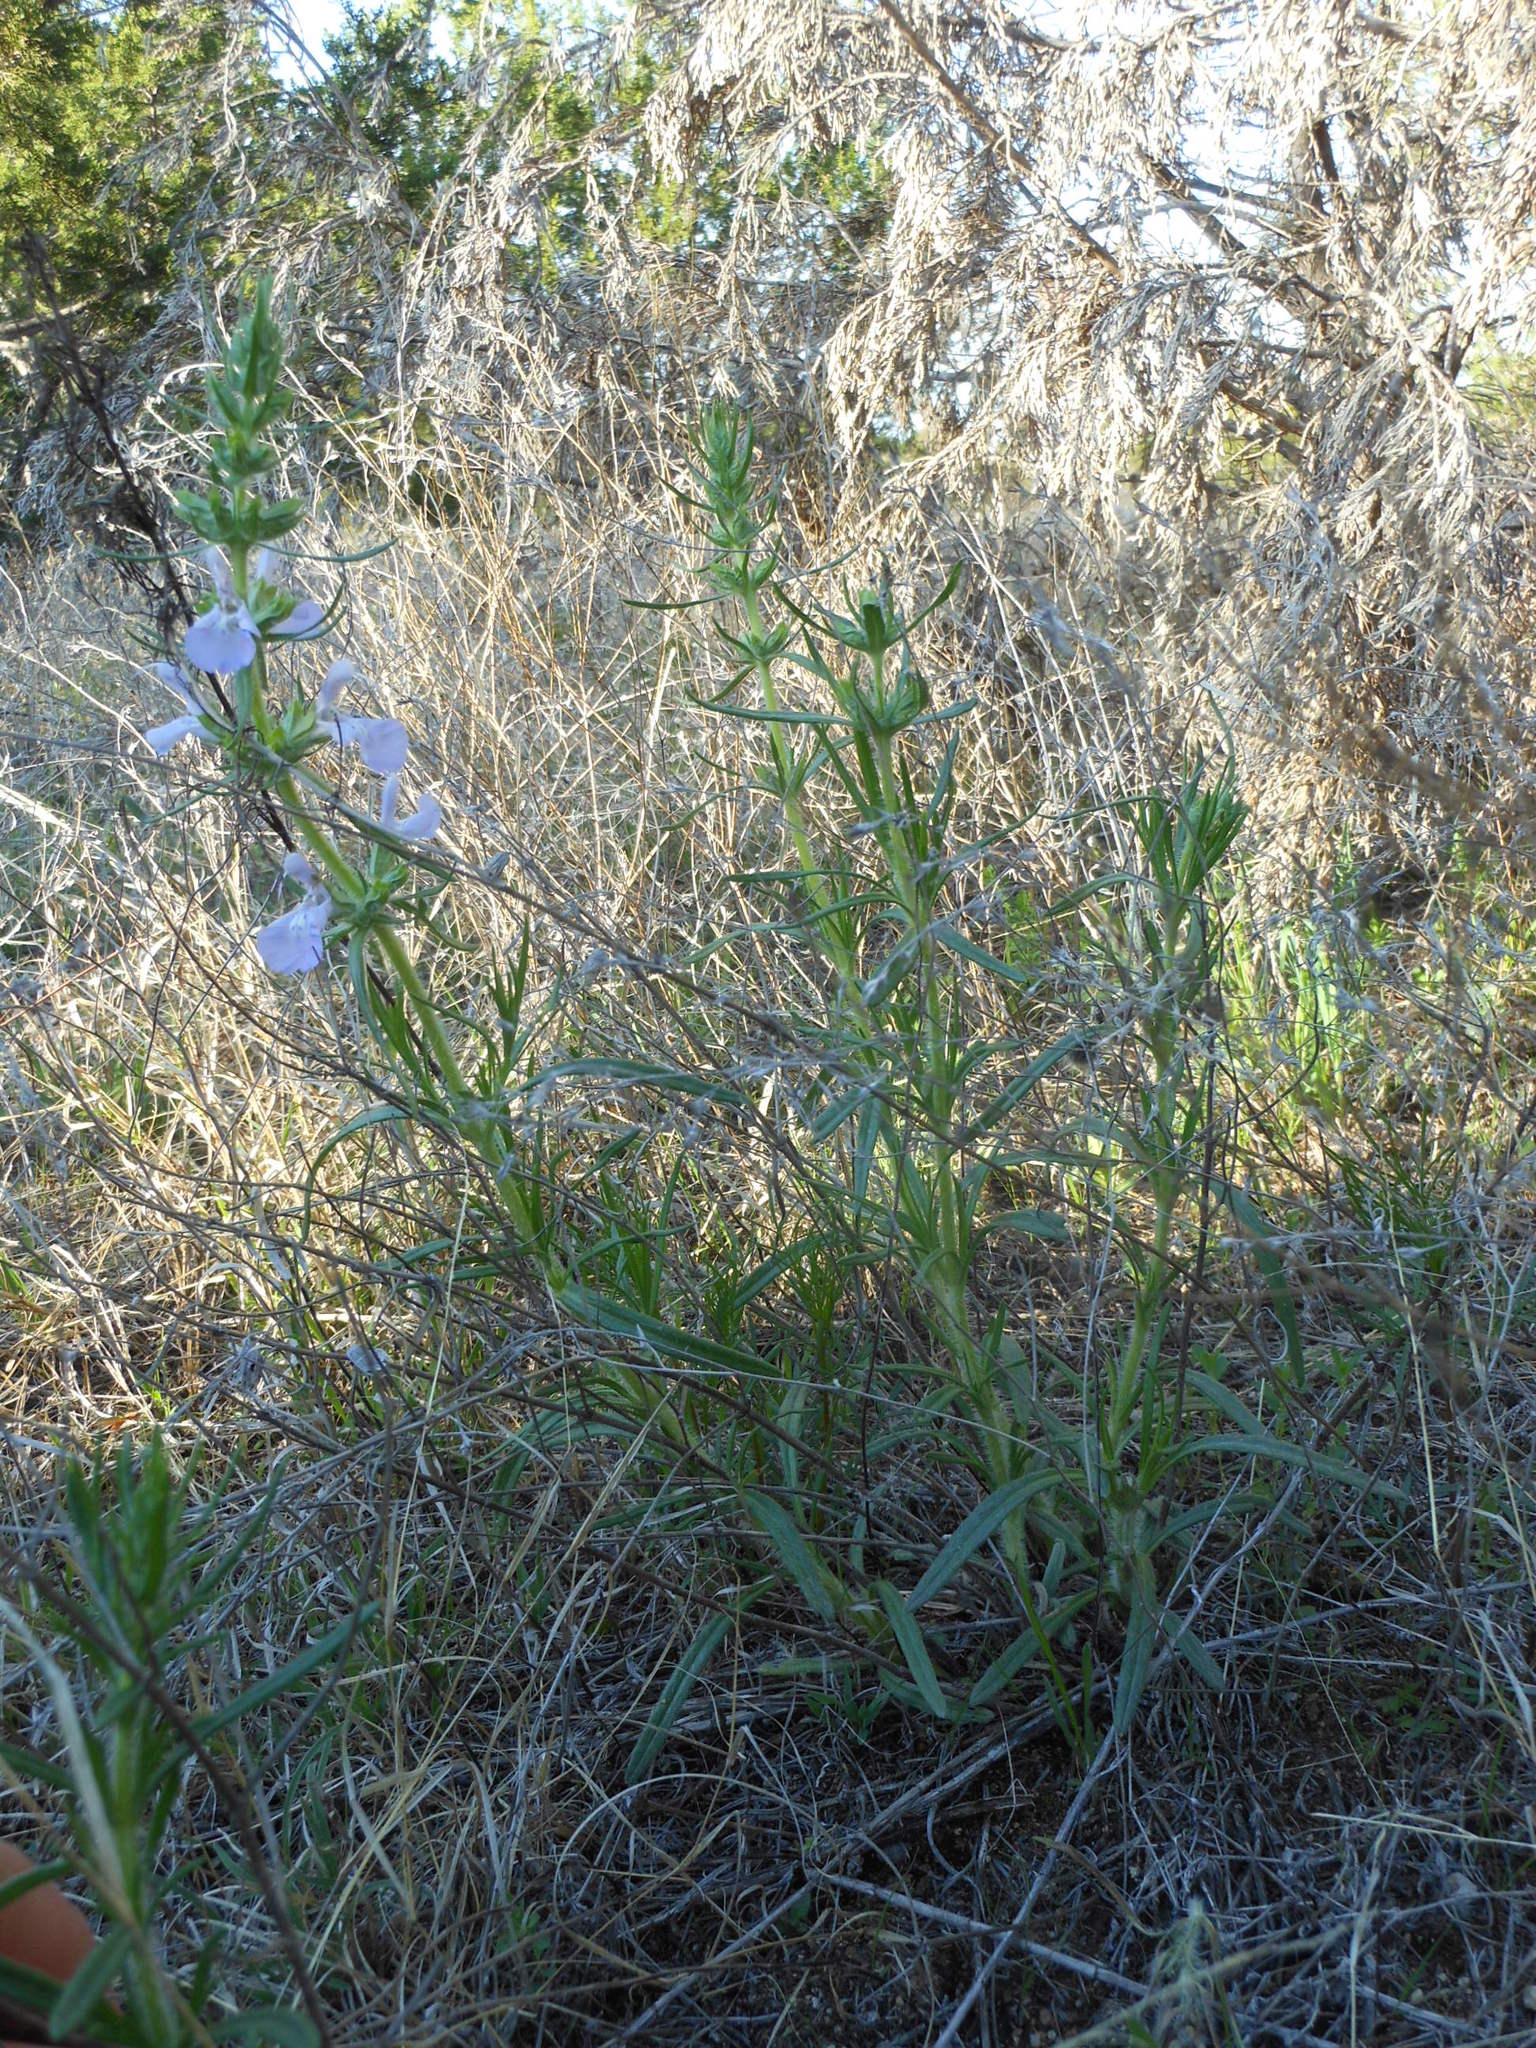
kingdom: Plantae
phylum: Tracheophyta
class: Magnoliopsida
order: Lamiales
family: Lamiaceae
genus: Salvia
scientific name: Salvia texana
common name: Texas sage
